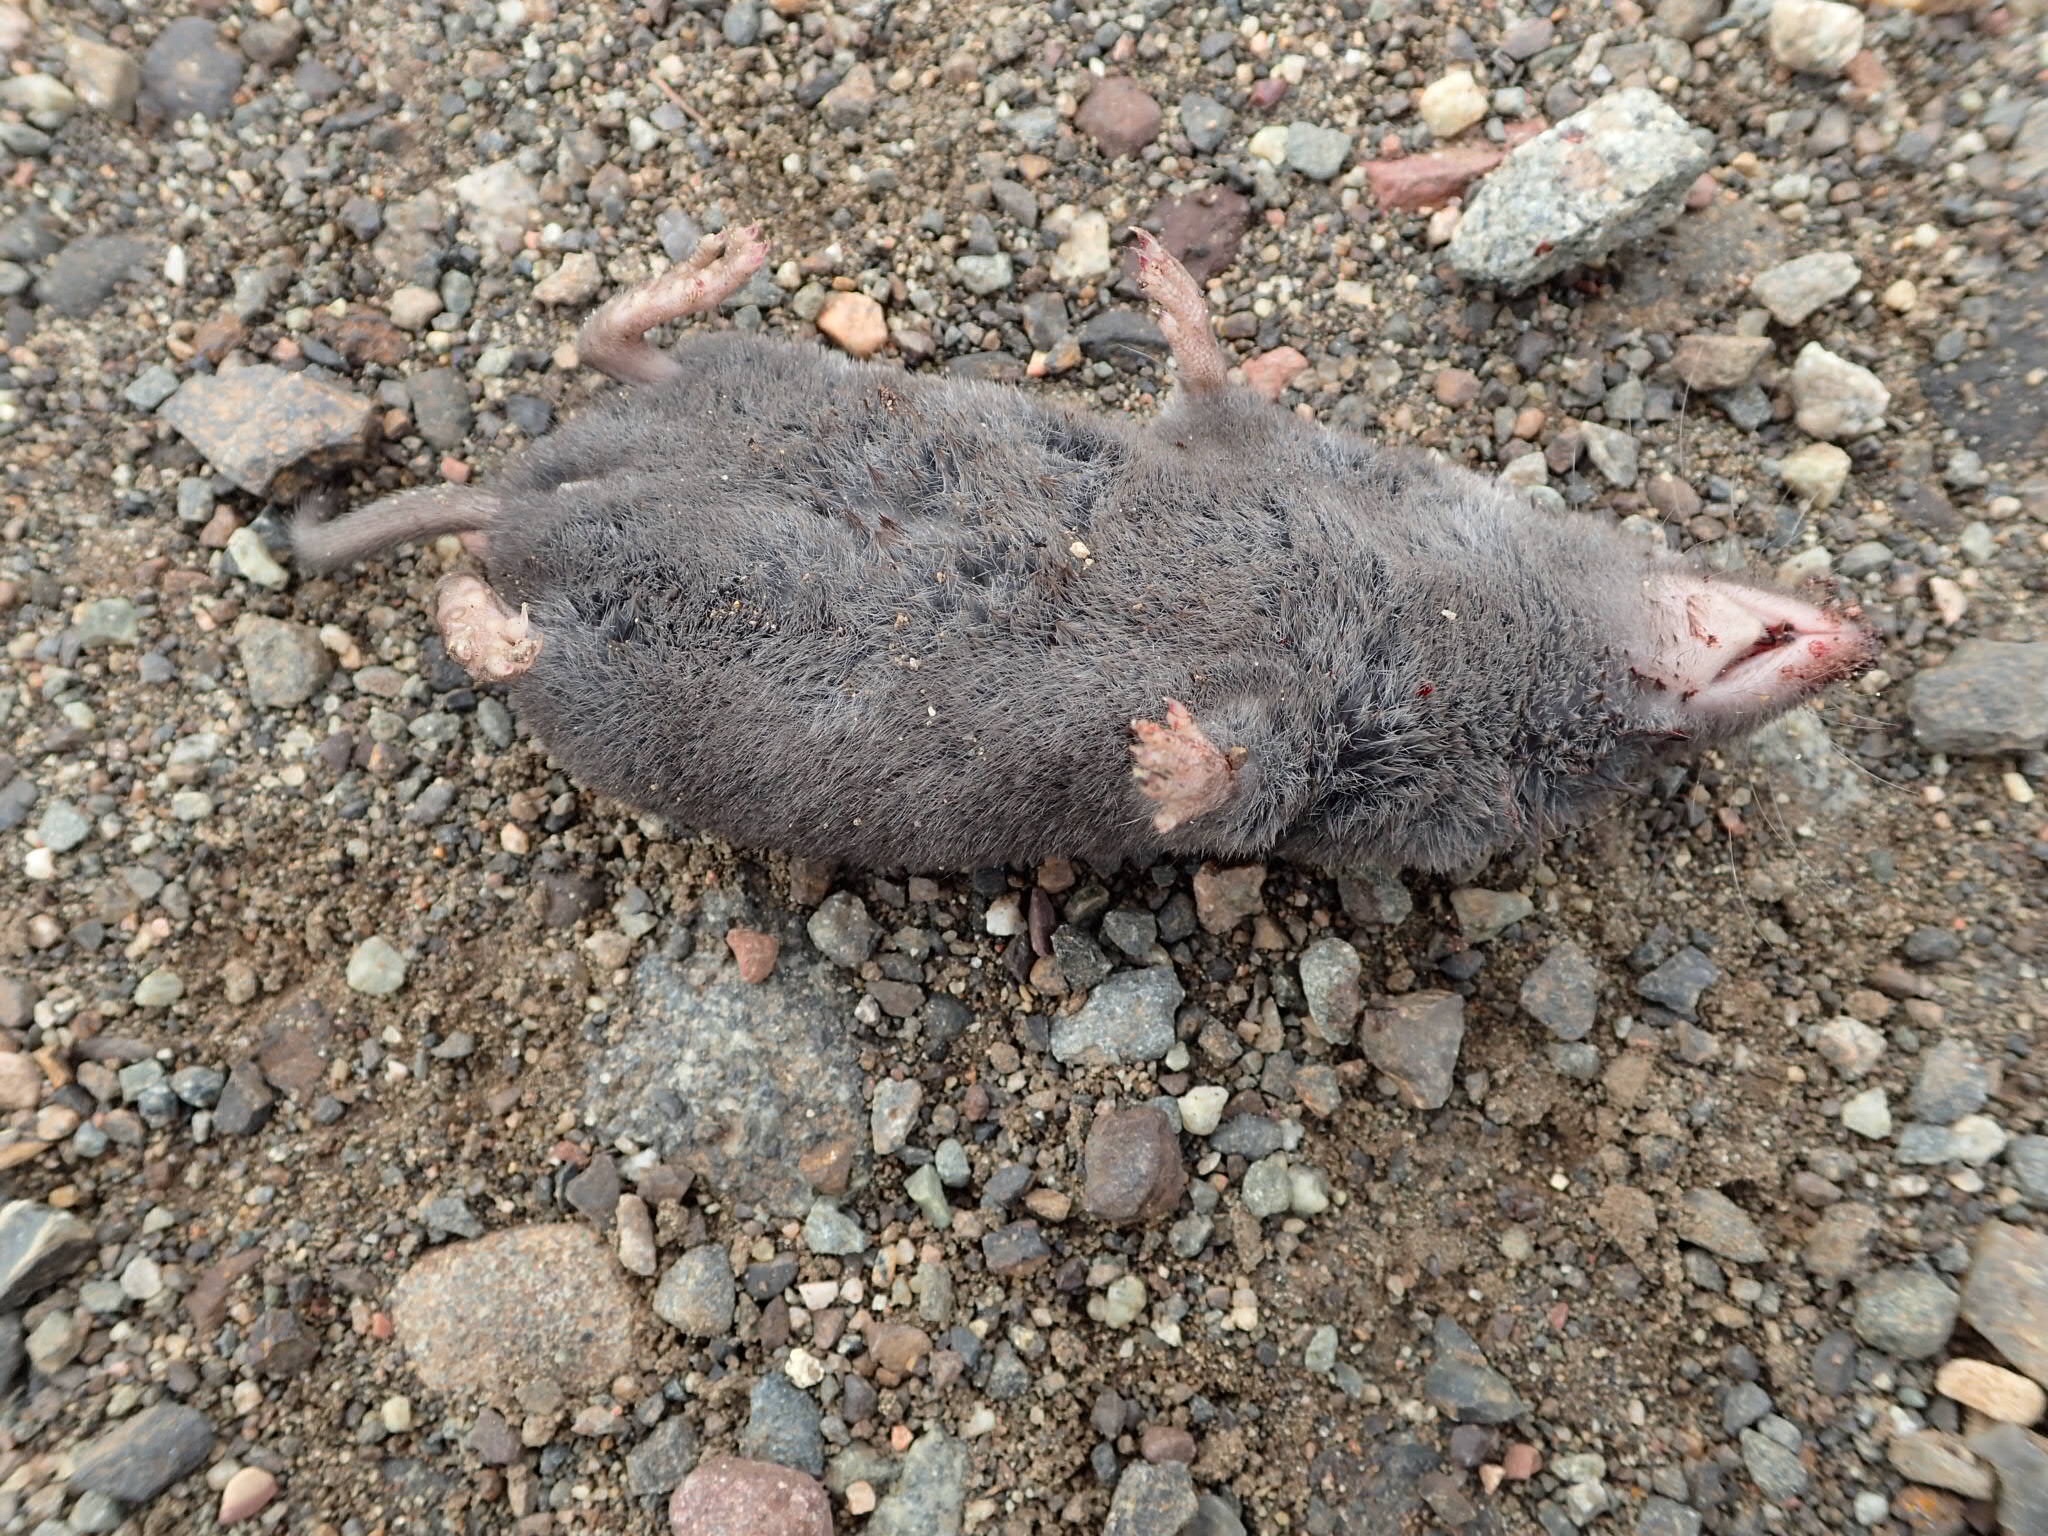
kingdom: Animalia
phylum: Chordata
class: Mammalia
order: Soricomorpha
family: Soricidae
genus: Blarina
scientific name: Blarina brevicauda
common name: Northern short-tailed shrew
